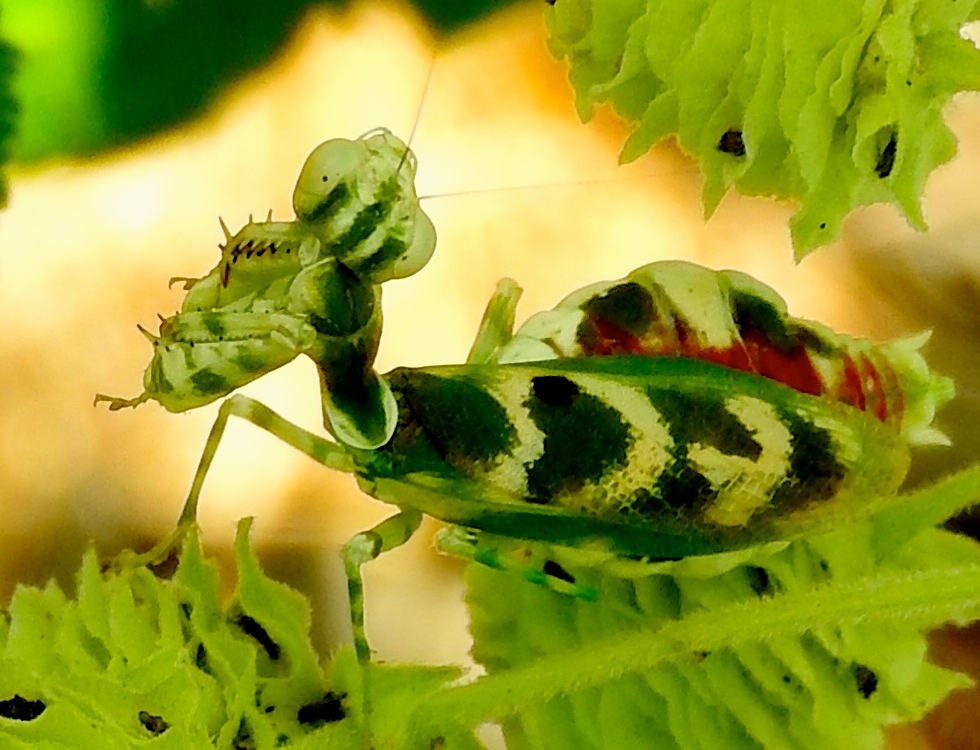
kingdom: Animalia
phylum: Arthropoda
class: Insecta
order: Mantodea
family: Acanthopidae
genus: Acontista
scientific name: Acontista mexicana
